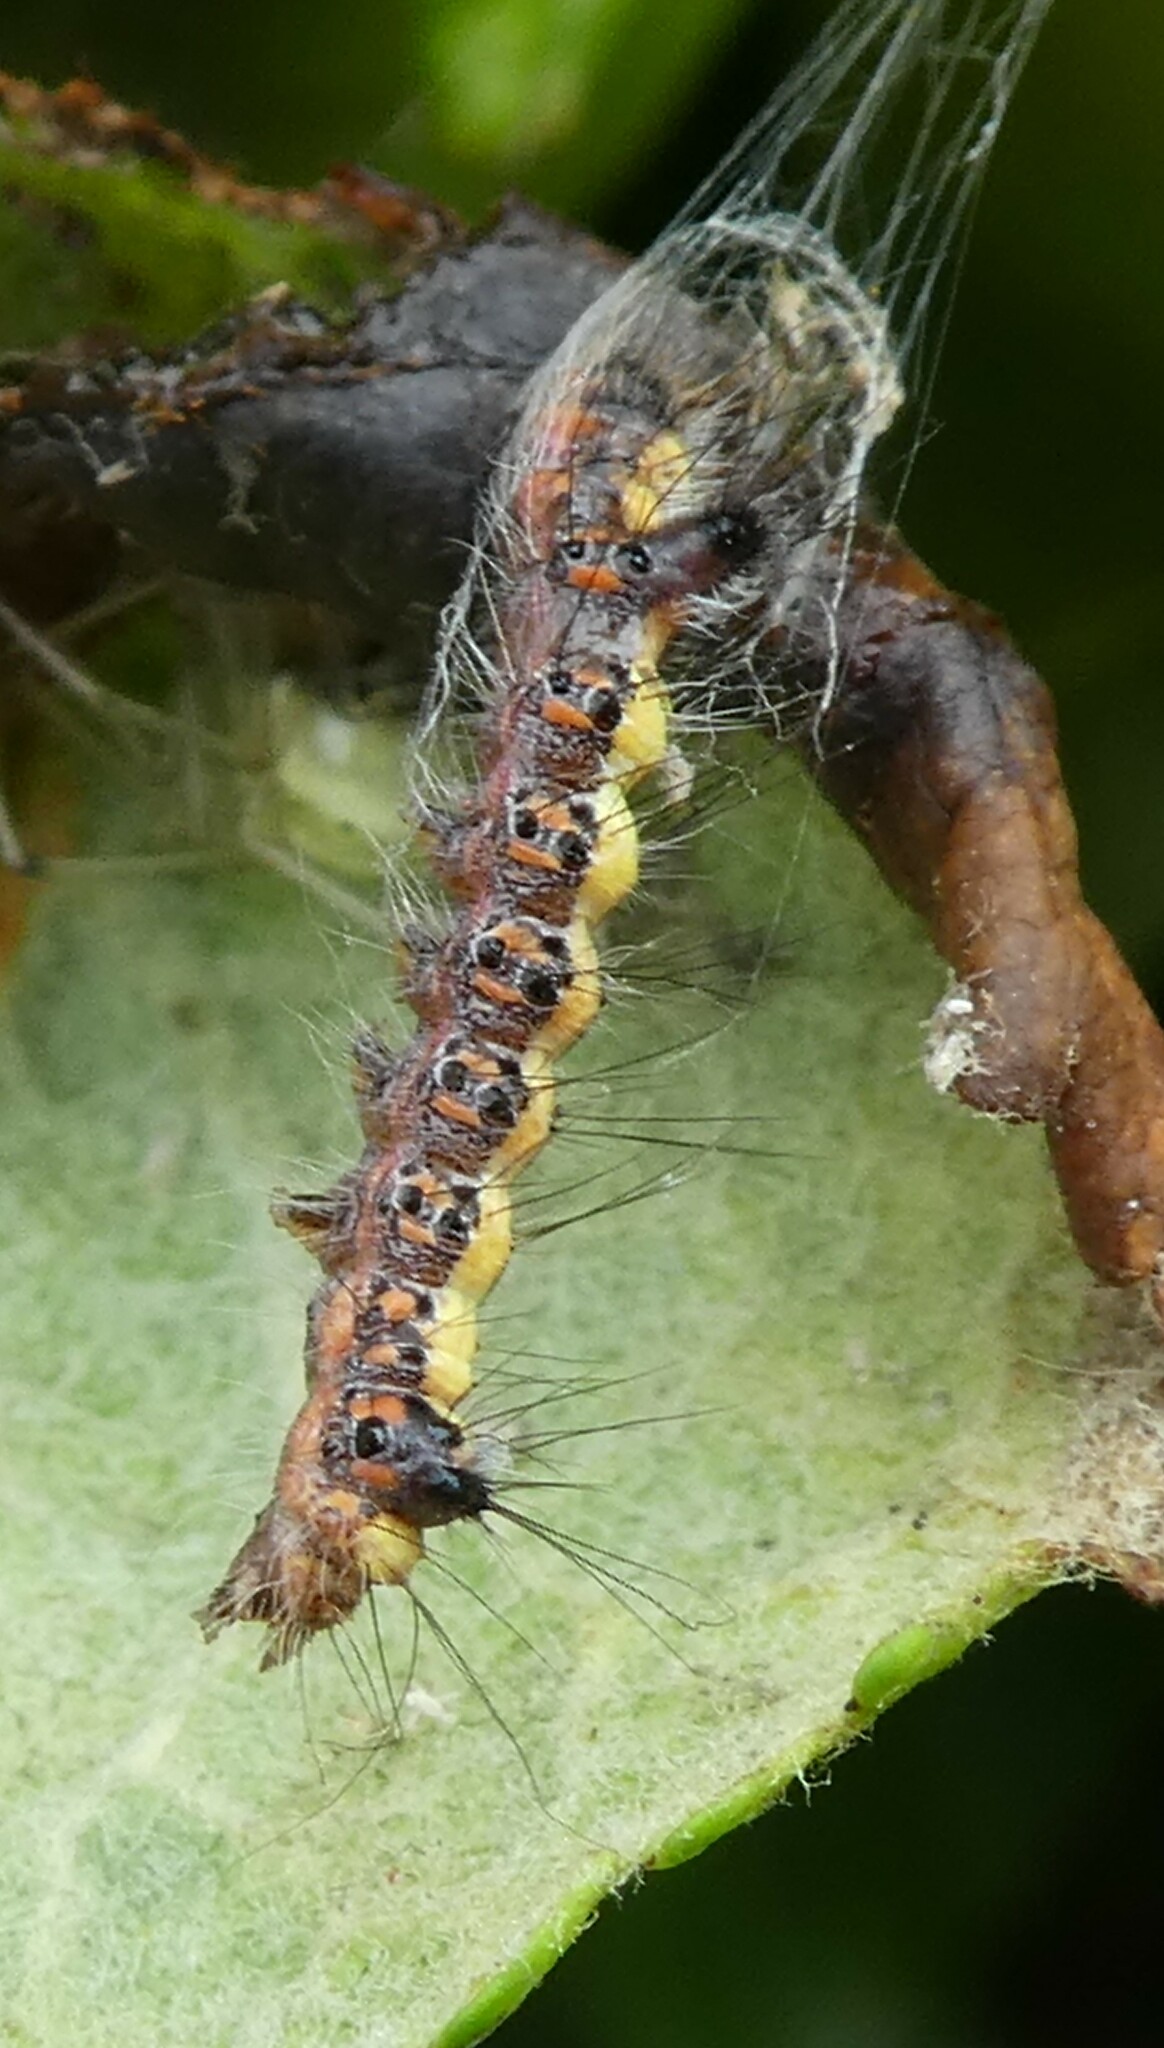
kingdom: Animalia
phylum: Arthropoda
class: Insecta
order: Lepidoptera
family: Noctuidae
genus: Acronicta
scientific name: Acronicta psi
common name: Grey dagger
